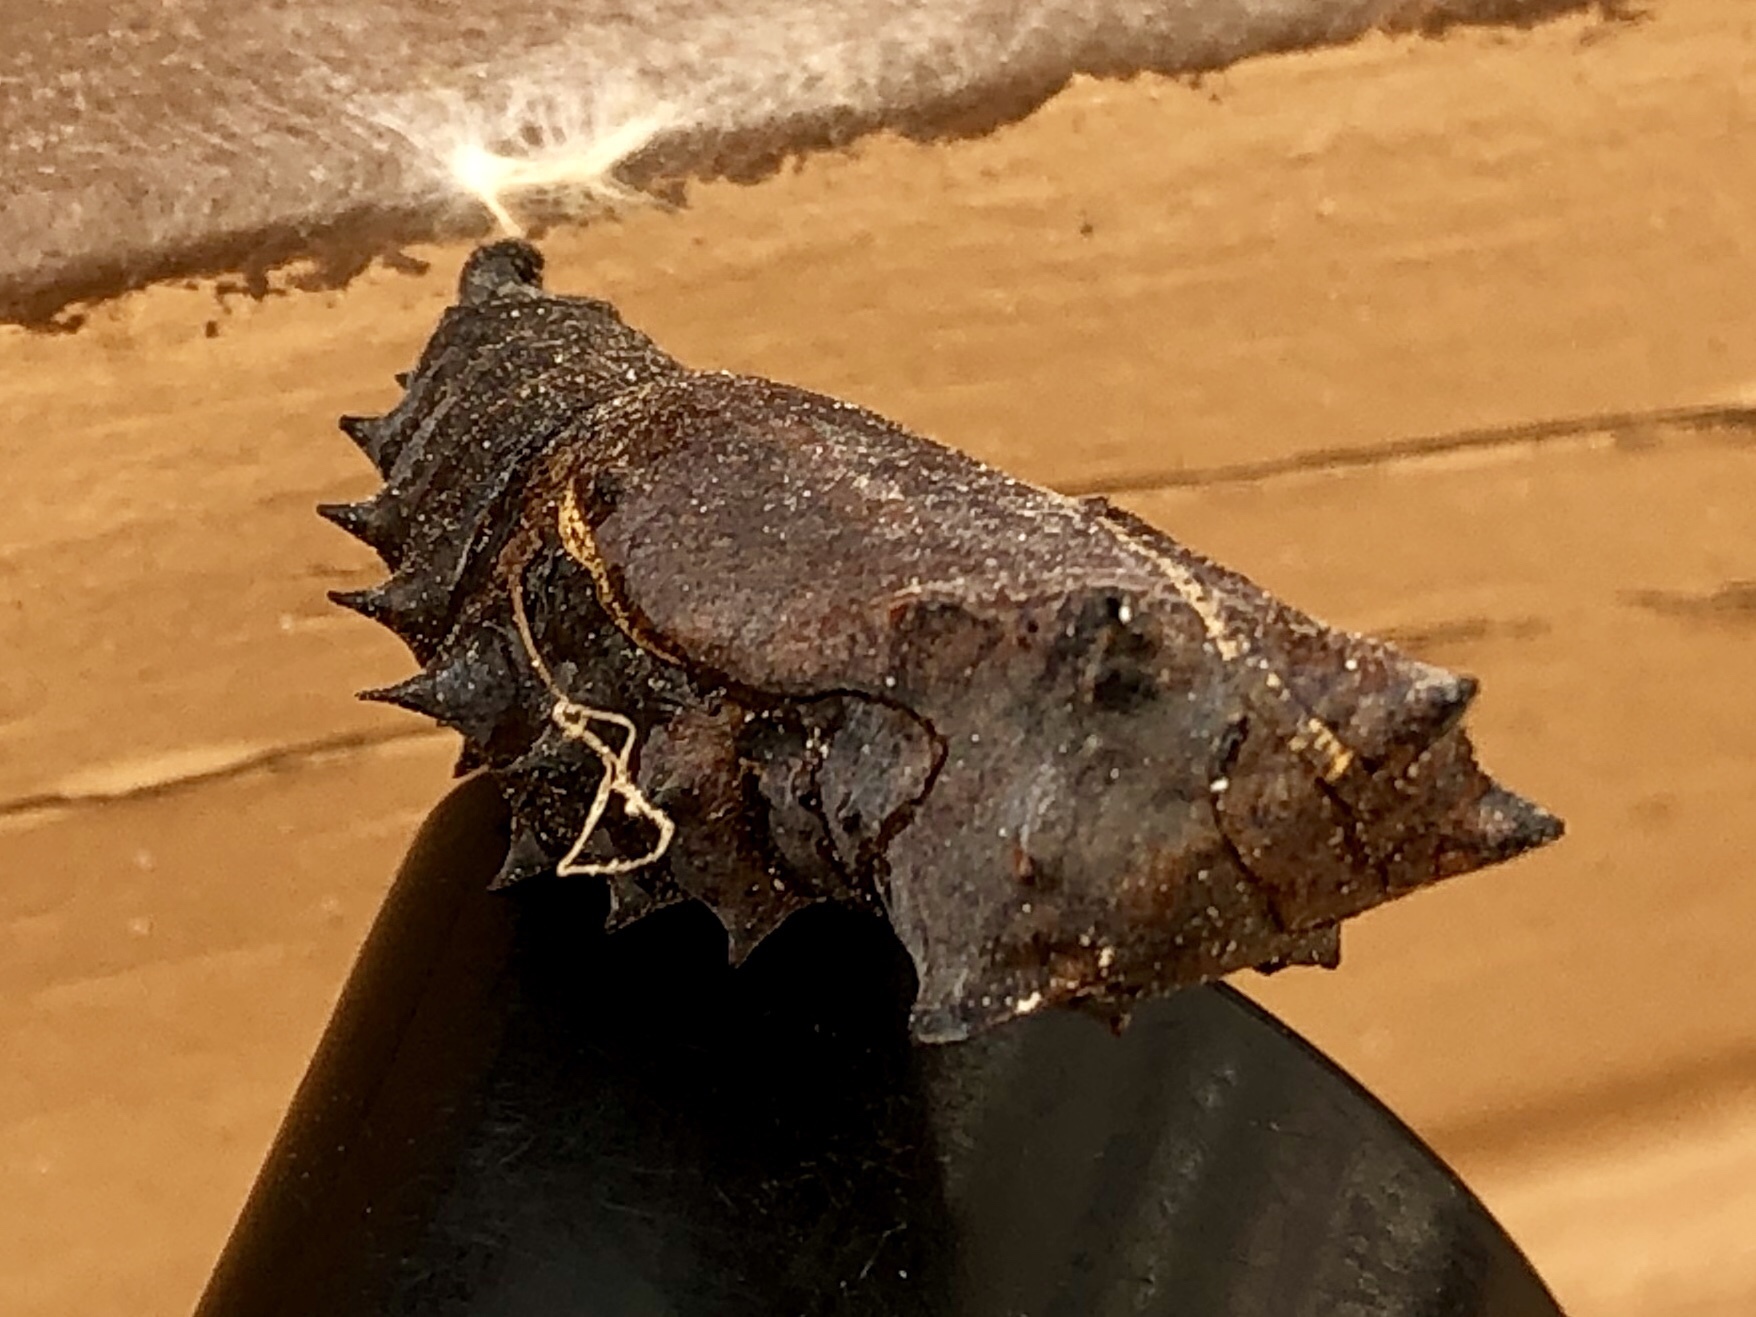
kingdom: Animalia
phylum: Arthropoda
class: Insecta
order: Lepidoptera
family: Nymphalidae
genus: Nymphalis
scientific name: Nymphalis antiopa
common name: Camberwell beauty
